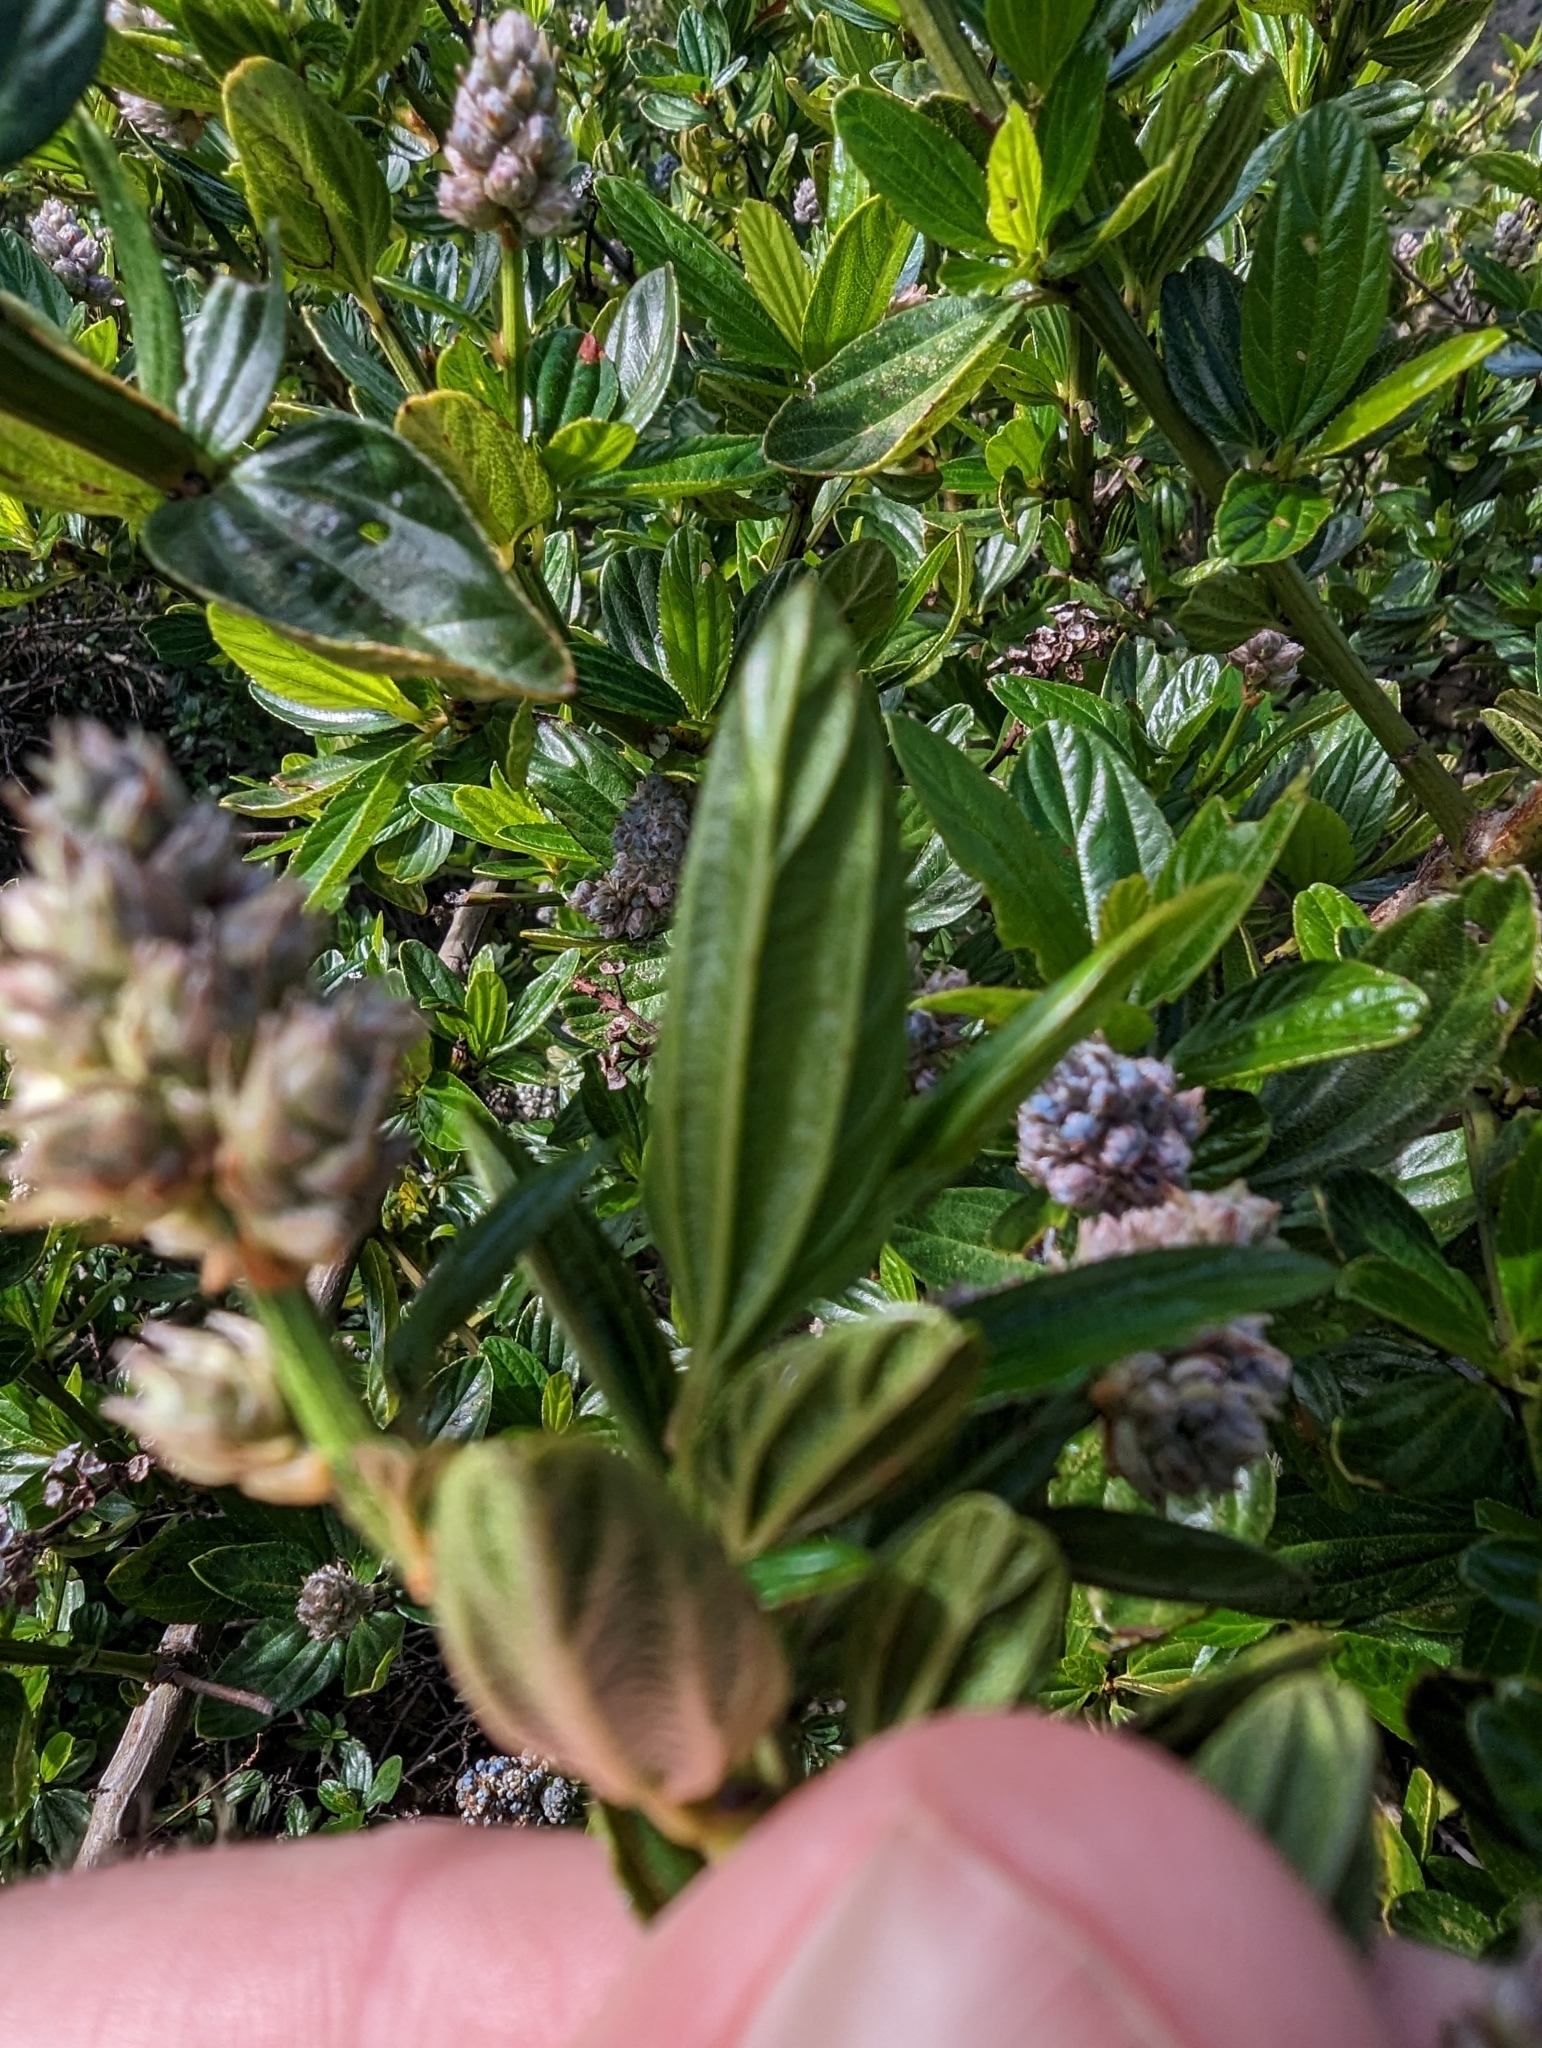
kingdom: Plantae
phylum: Tracheophyta
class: Magnoliopsida
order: Rosales
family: Rhamnaceae
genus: Ceanothus
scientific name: Ceanothus thyrsiflorus
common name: California-lilac
